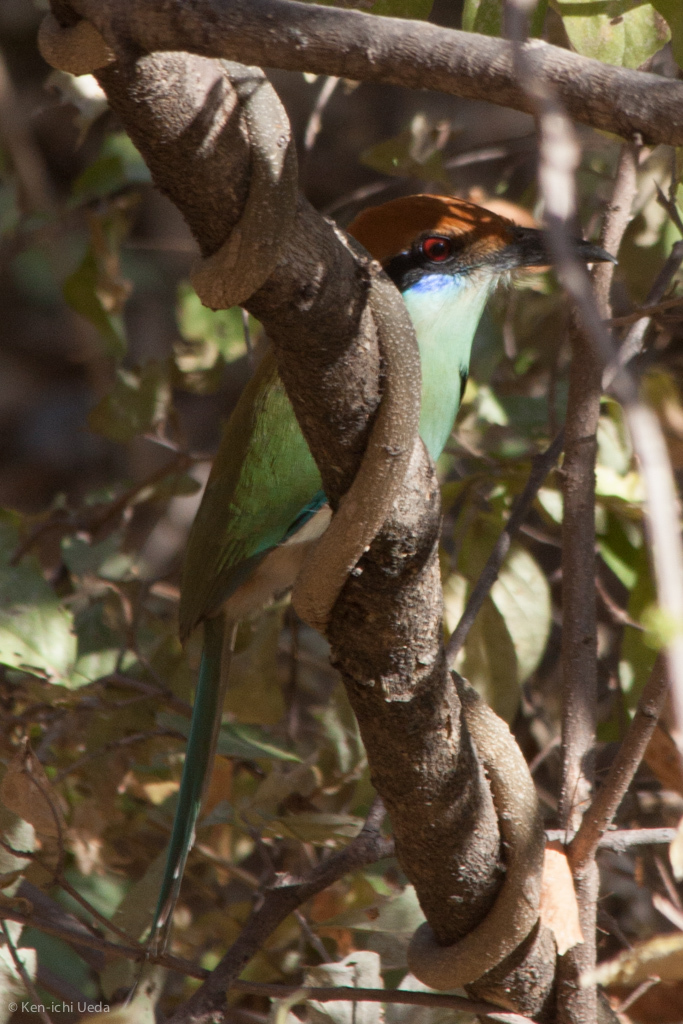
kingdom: Animalia
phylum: Chordata
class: Aves
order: Coraciiformes
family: Momotidae
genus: Momotus
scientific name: Momotus mexicanus
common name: Russet-crowned motmot
